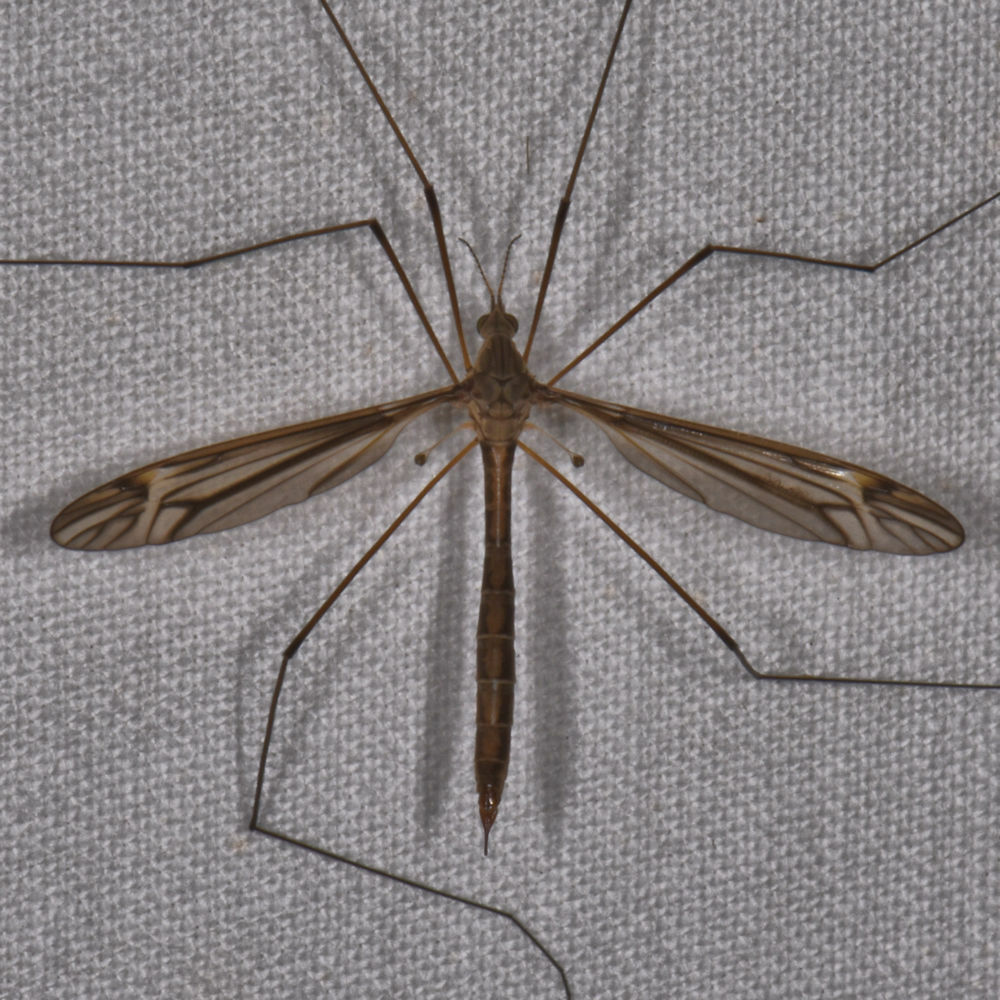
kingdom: Animalia
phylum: Arthropoda
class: Insecta
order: Diptera
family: Tipulidae
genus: Tipula
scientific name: Tipula furca
